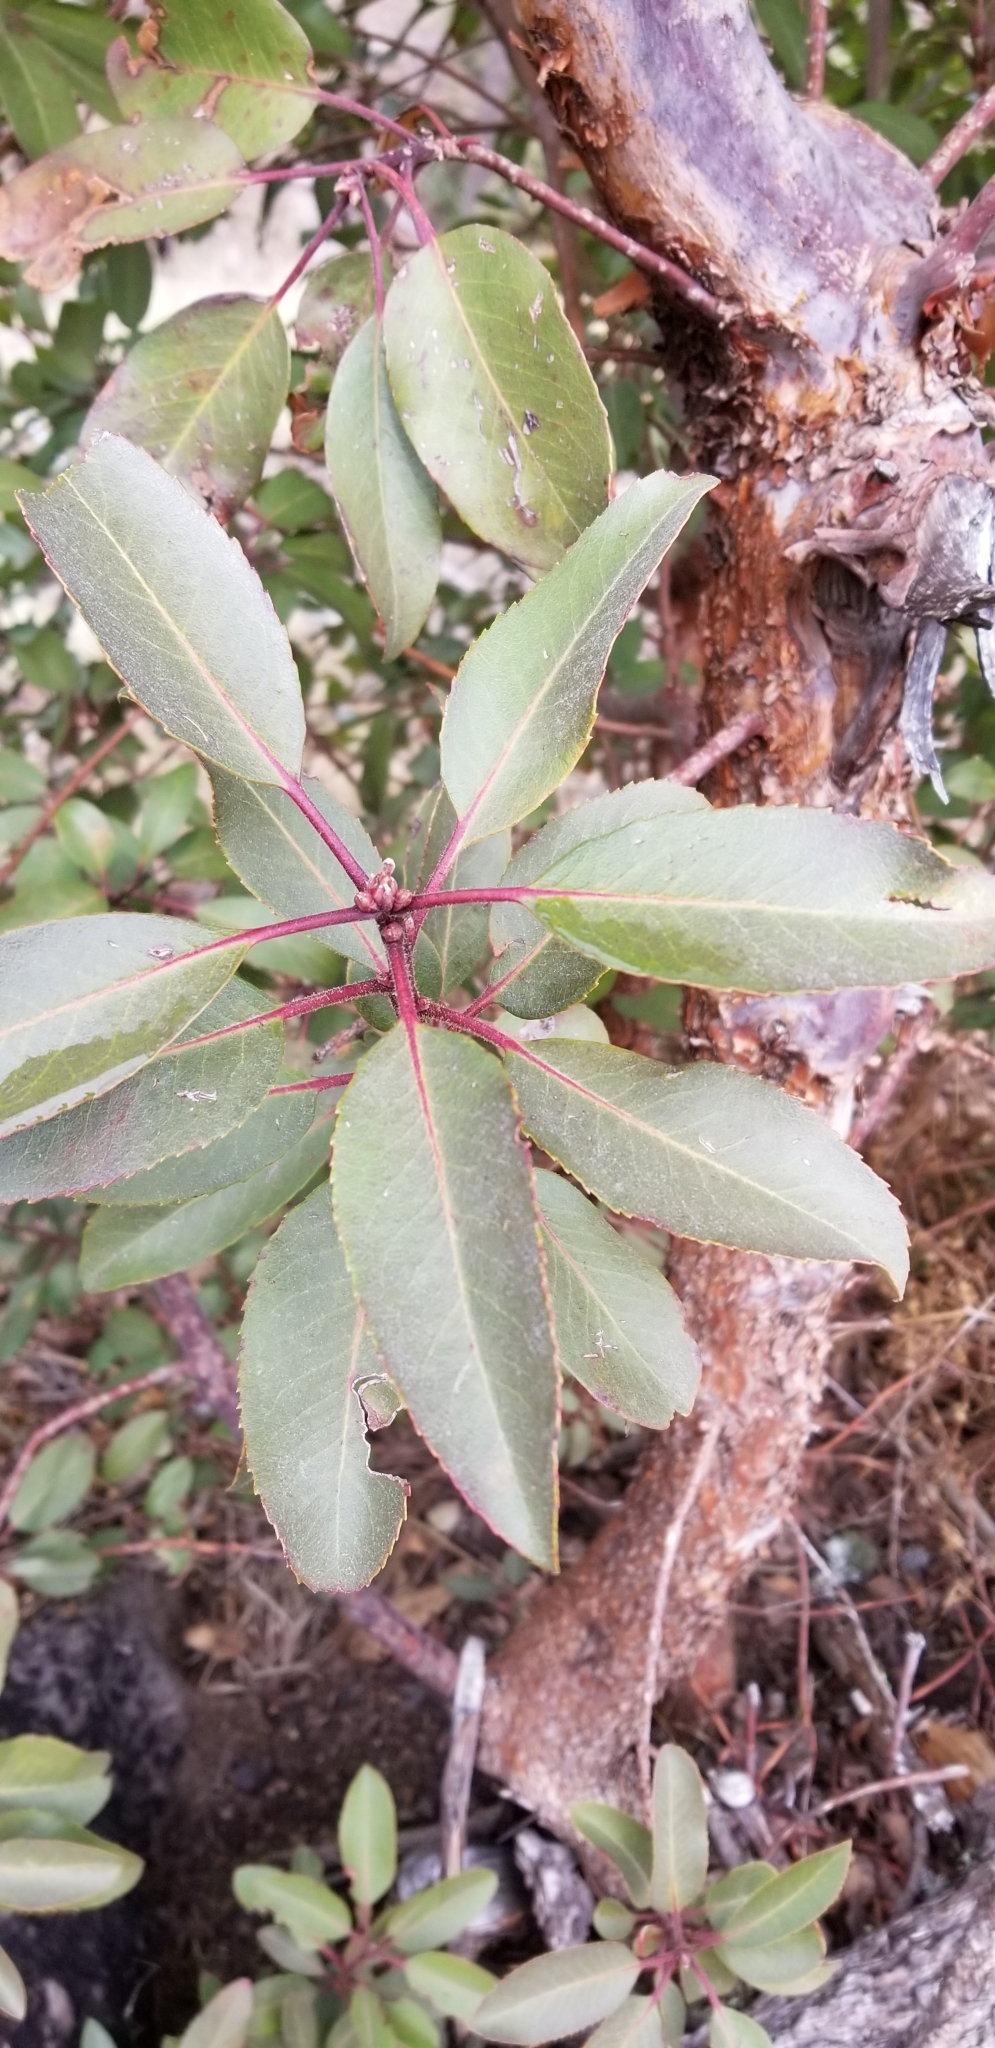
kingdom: Plantae
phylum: Tracheophyta
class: Magnoliopsida
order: Ericales
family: Ericaceae
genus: Arbutus
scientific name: Arbutus xalapensis
